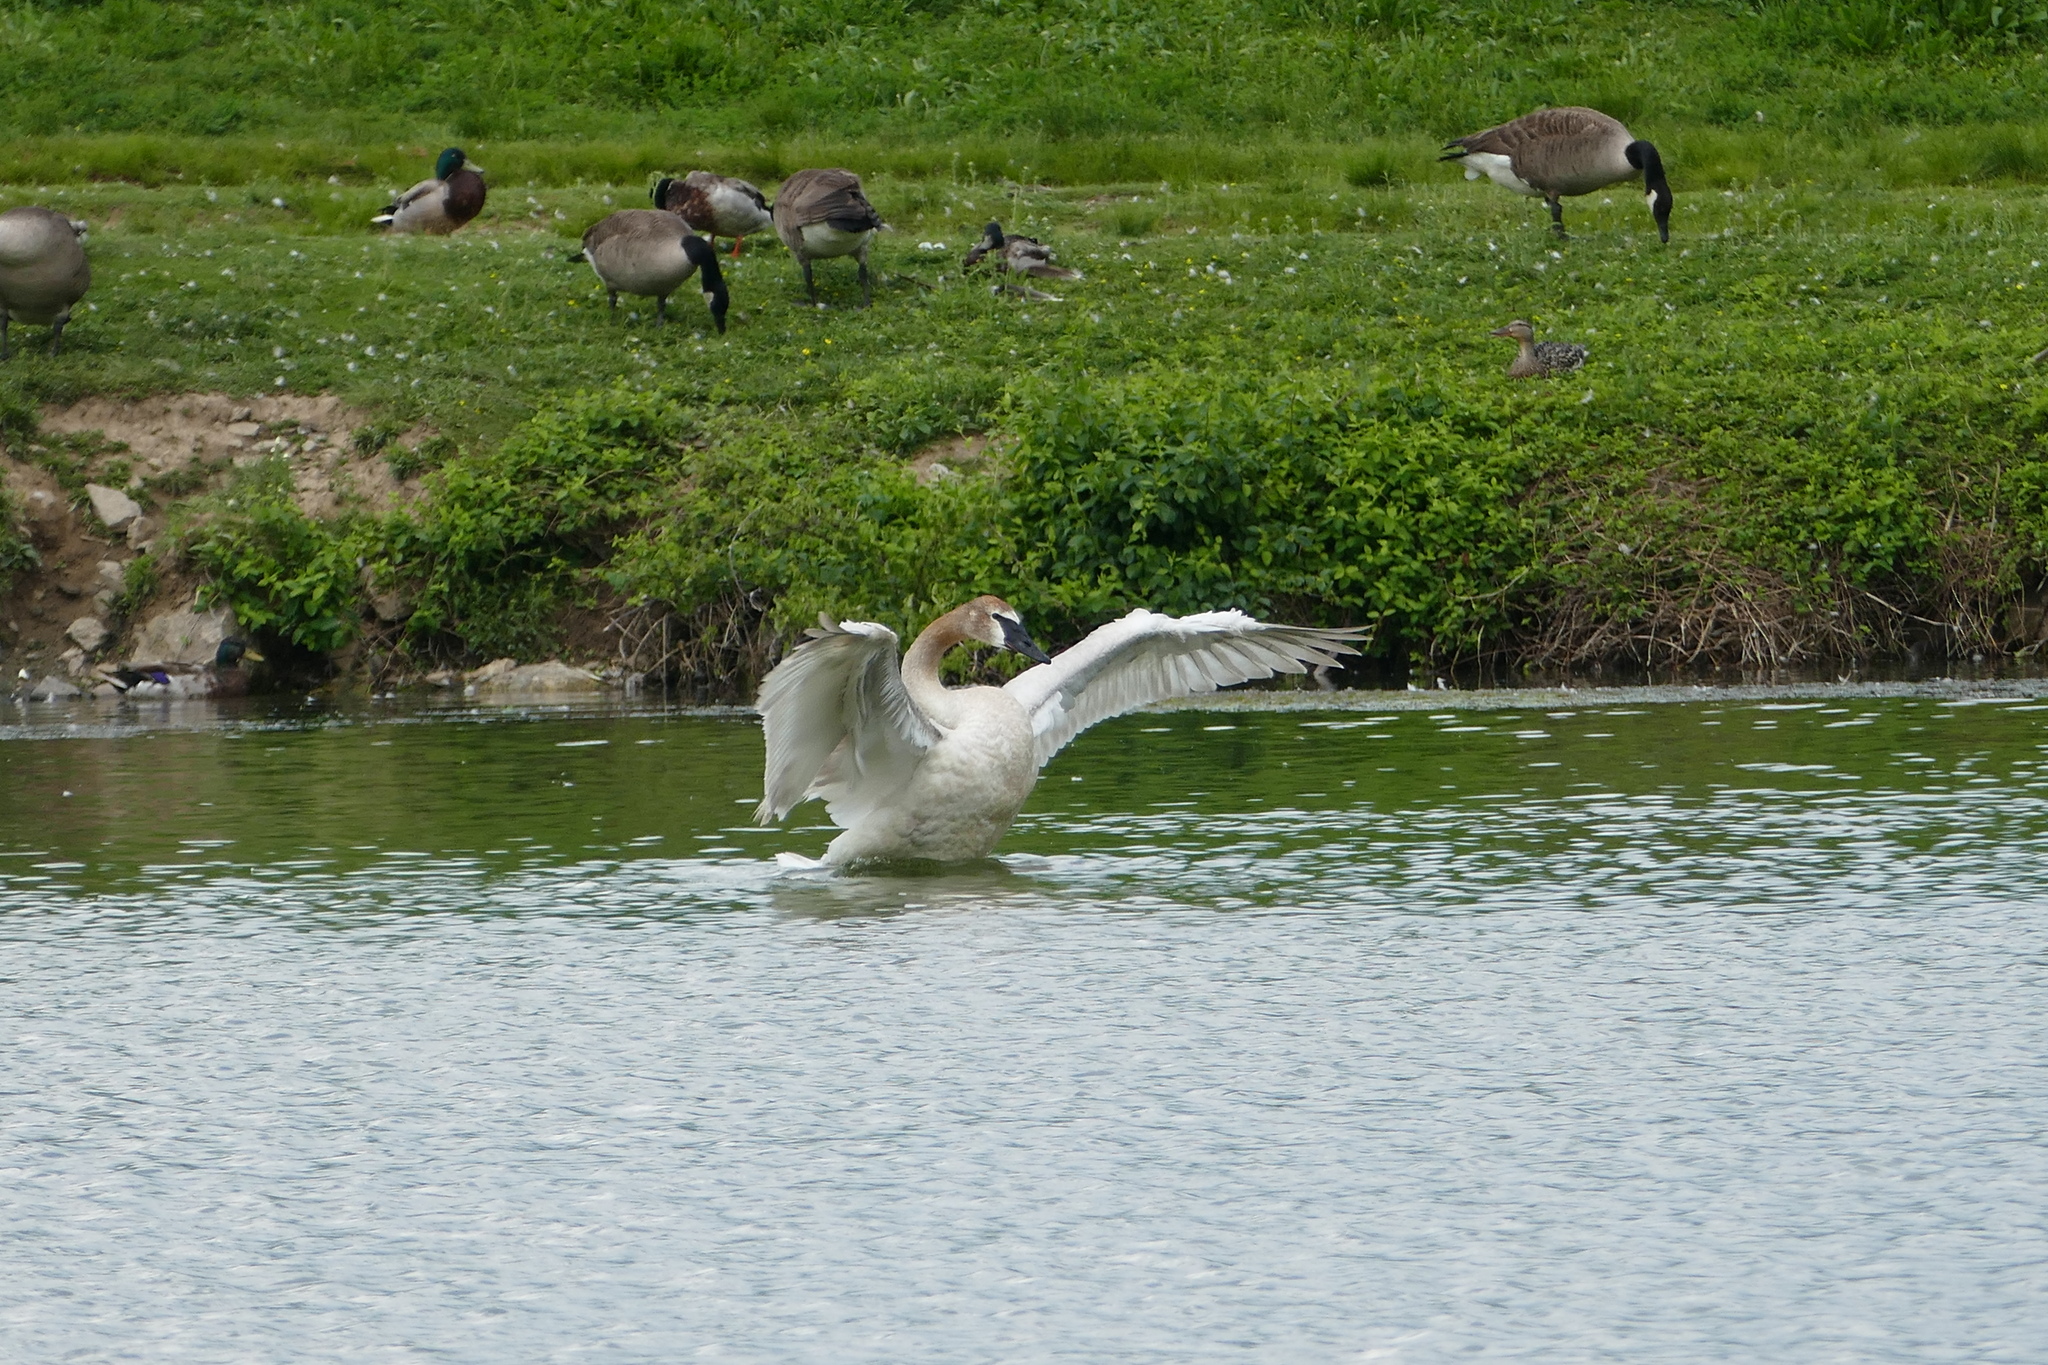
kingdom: Animalia
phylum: Chordata
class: Aves
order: Anseriformes
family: Anatidae
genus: Anas
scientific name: Anas platyrhynchos
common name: Mallard
